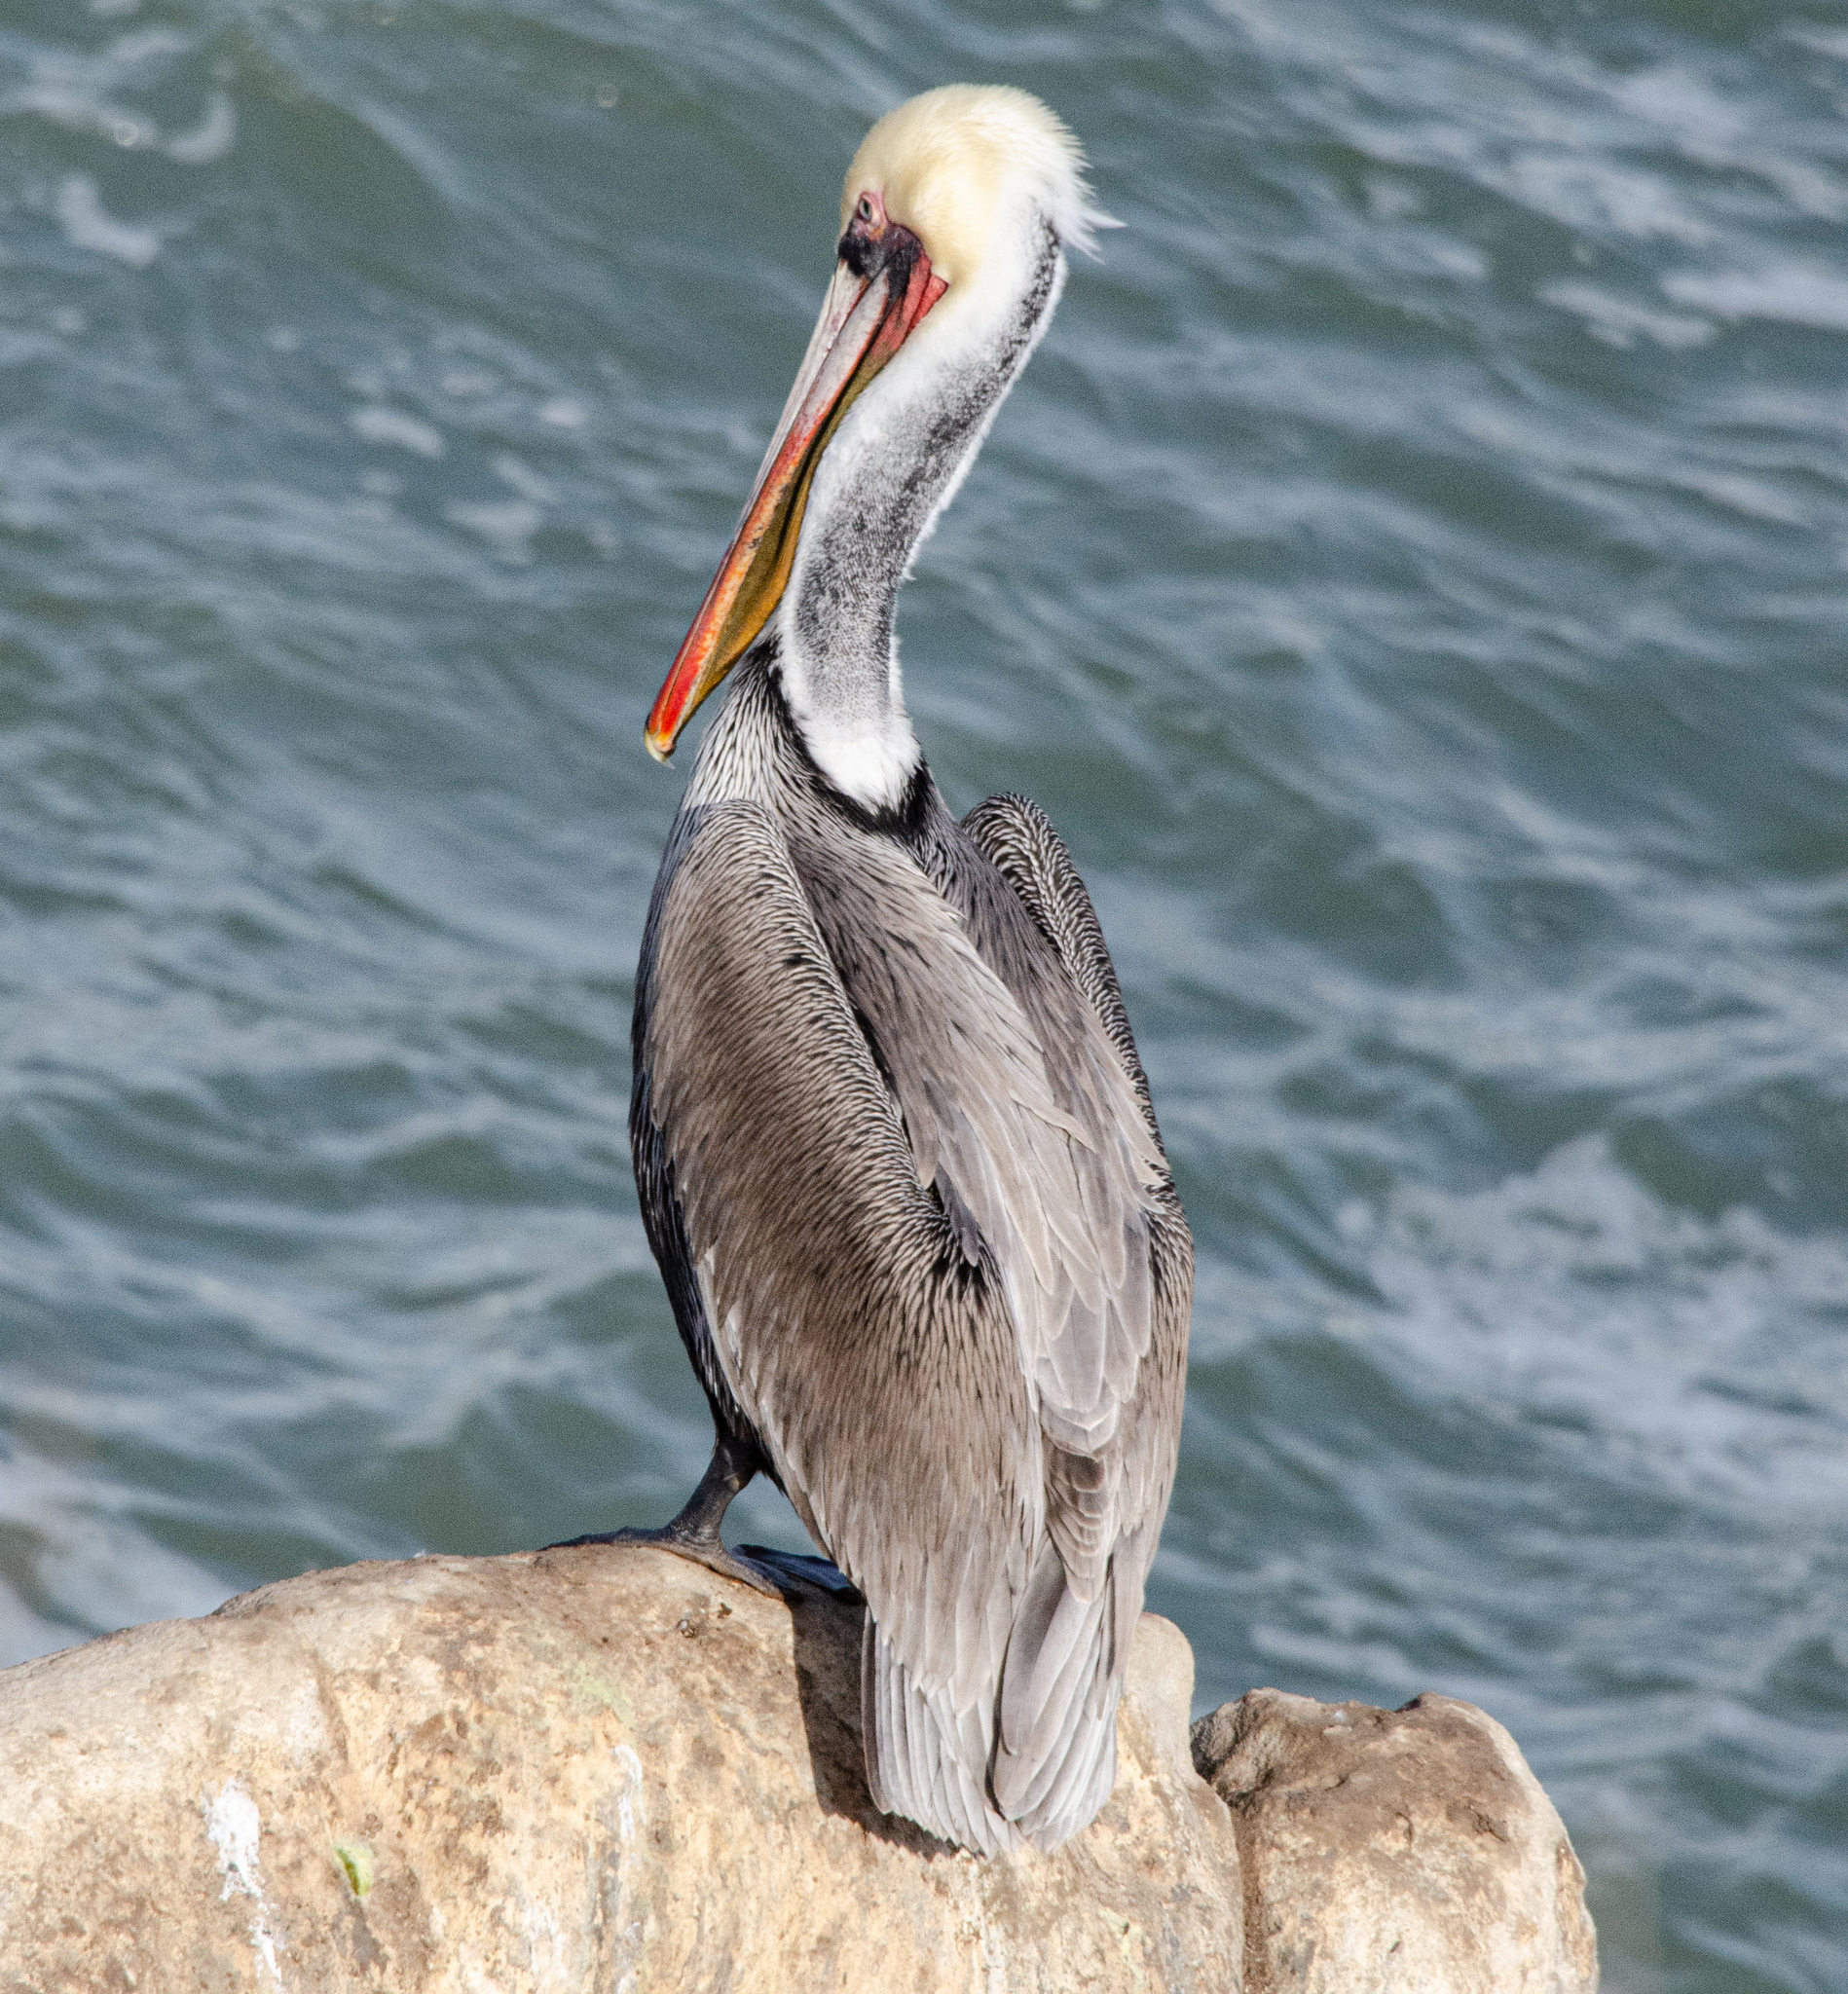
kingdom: Animalia
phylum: Chordata
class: Aves
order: Pelecaniformes
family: Pelecanidae
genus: Pelecanus
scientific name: Pelecanus occidentalis
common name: Brown pelican
